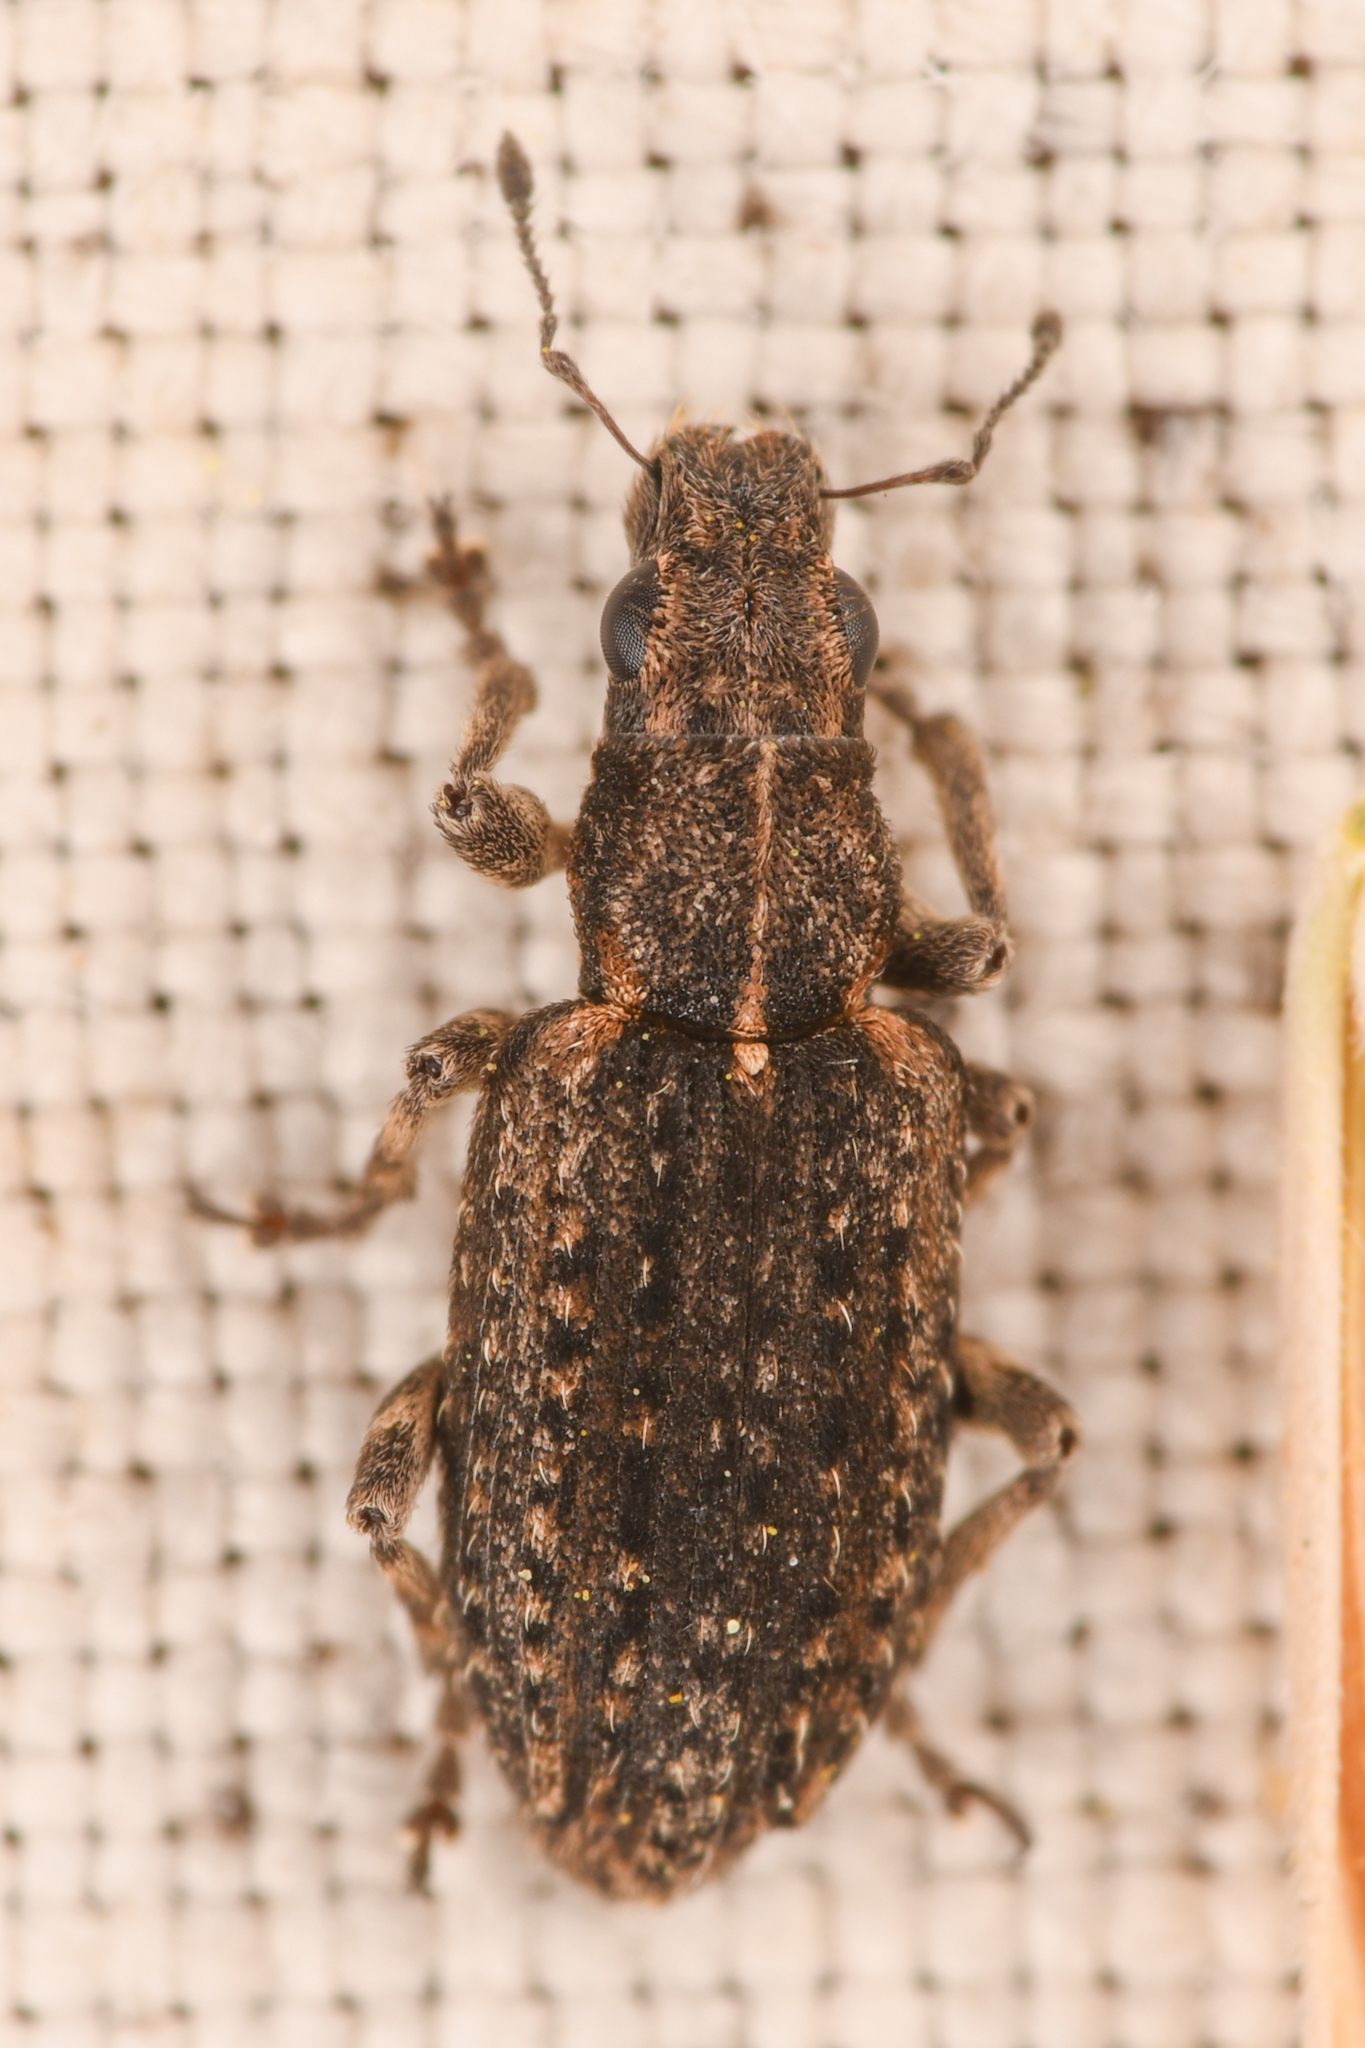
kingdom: Animalia
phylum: Arthropoda
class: Insecta
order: Coleoptera
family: Curculionidae
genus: Sitones
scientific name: Sitones californius
